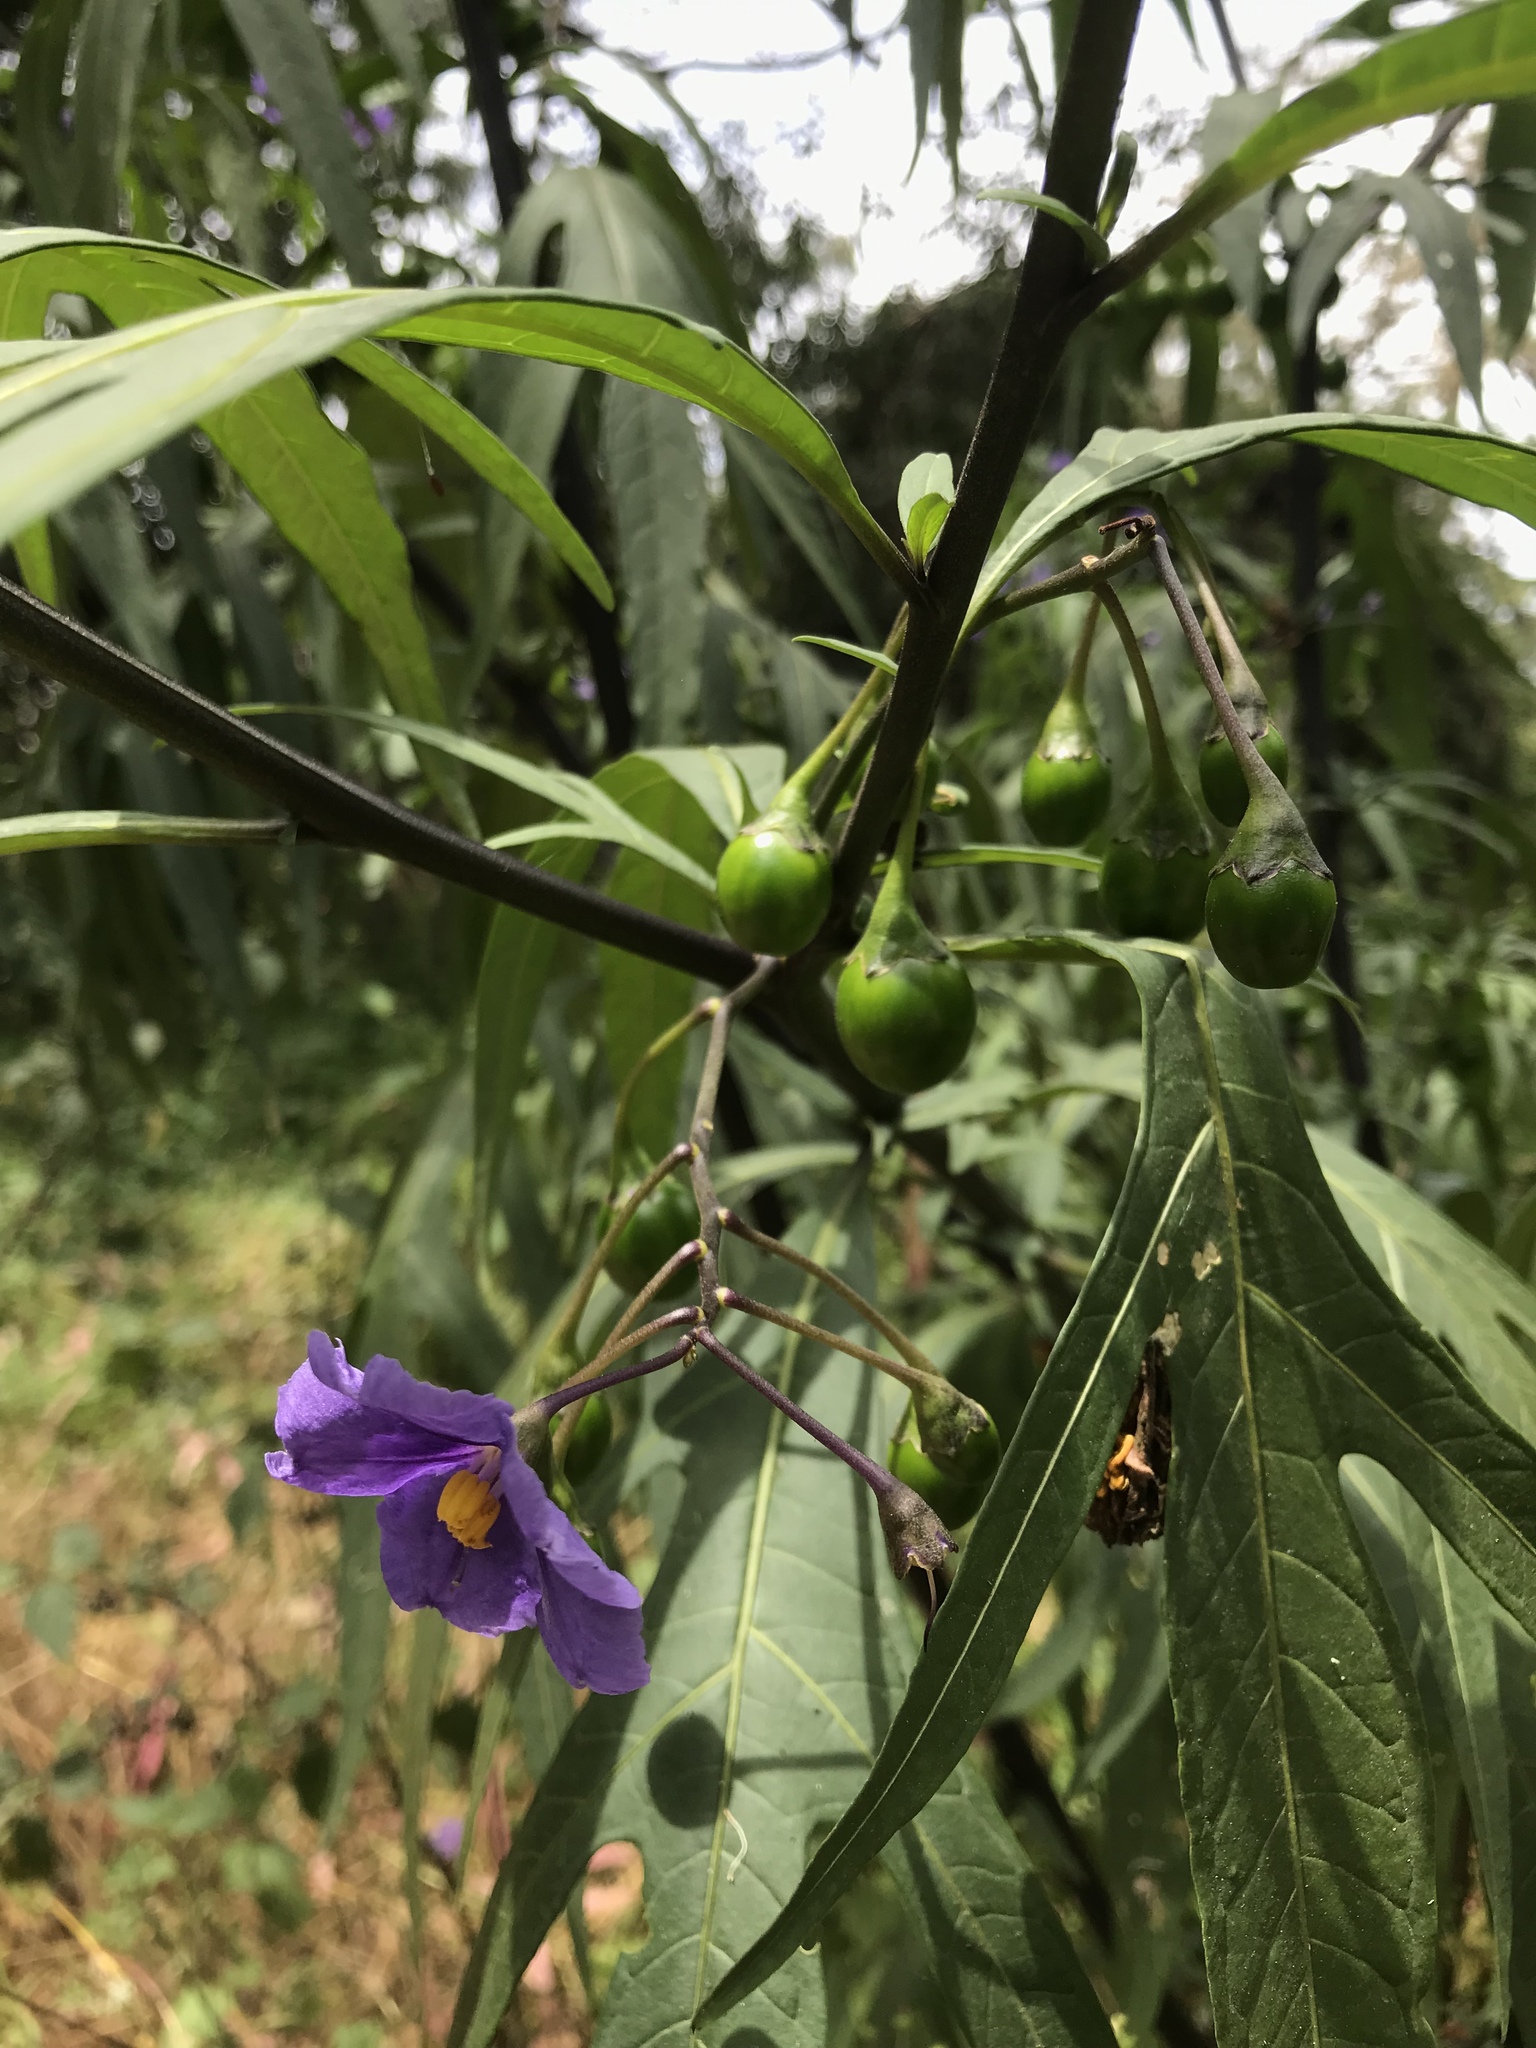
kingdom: Plantae
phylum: Tracheophyta
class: Magnoliopsida
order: Solanales
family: Solanaceae
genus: Solanum
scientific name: Solanum laciniatum
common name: Kangaroo-apple
